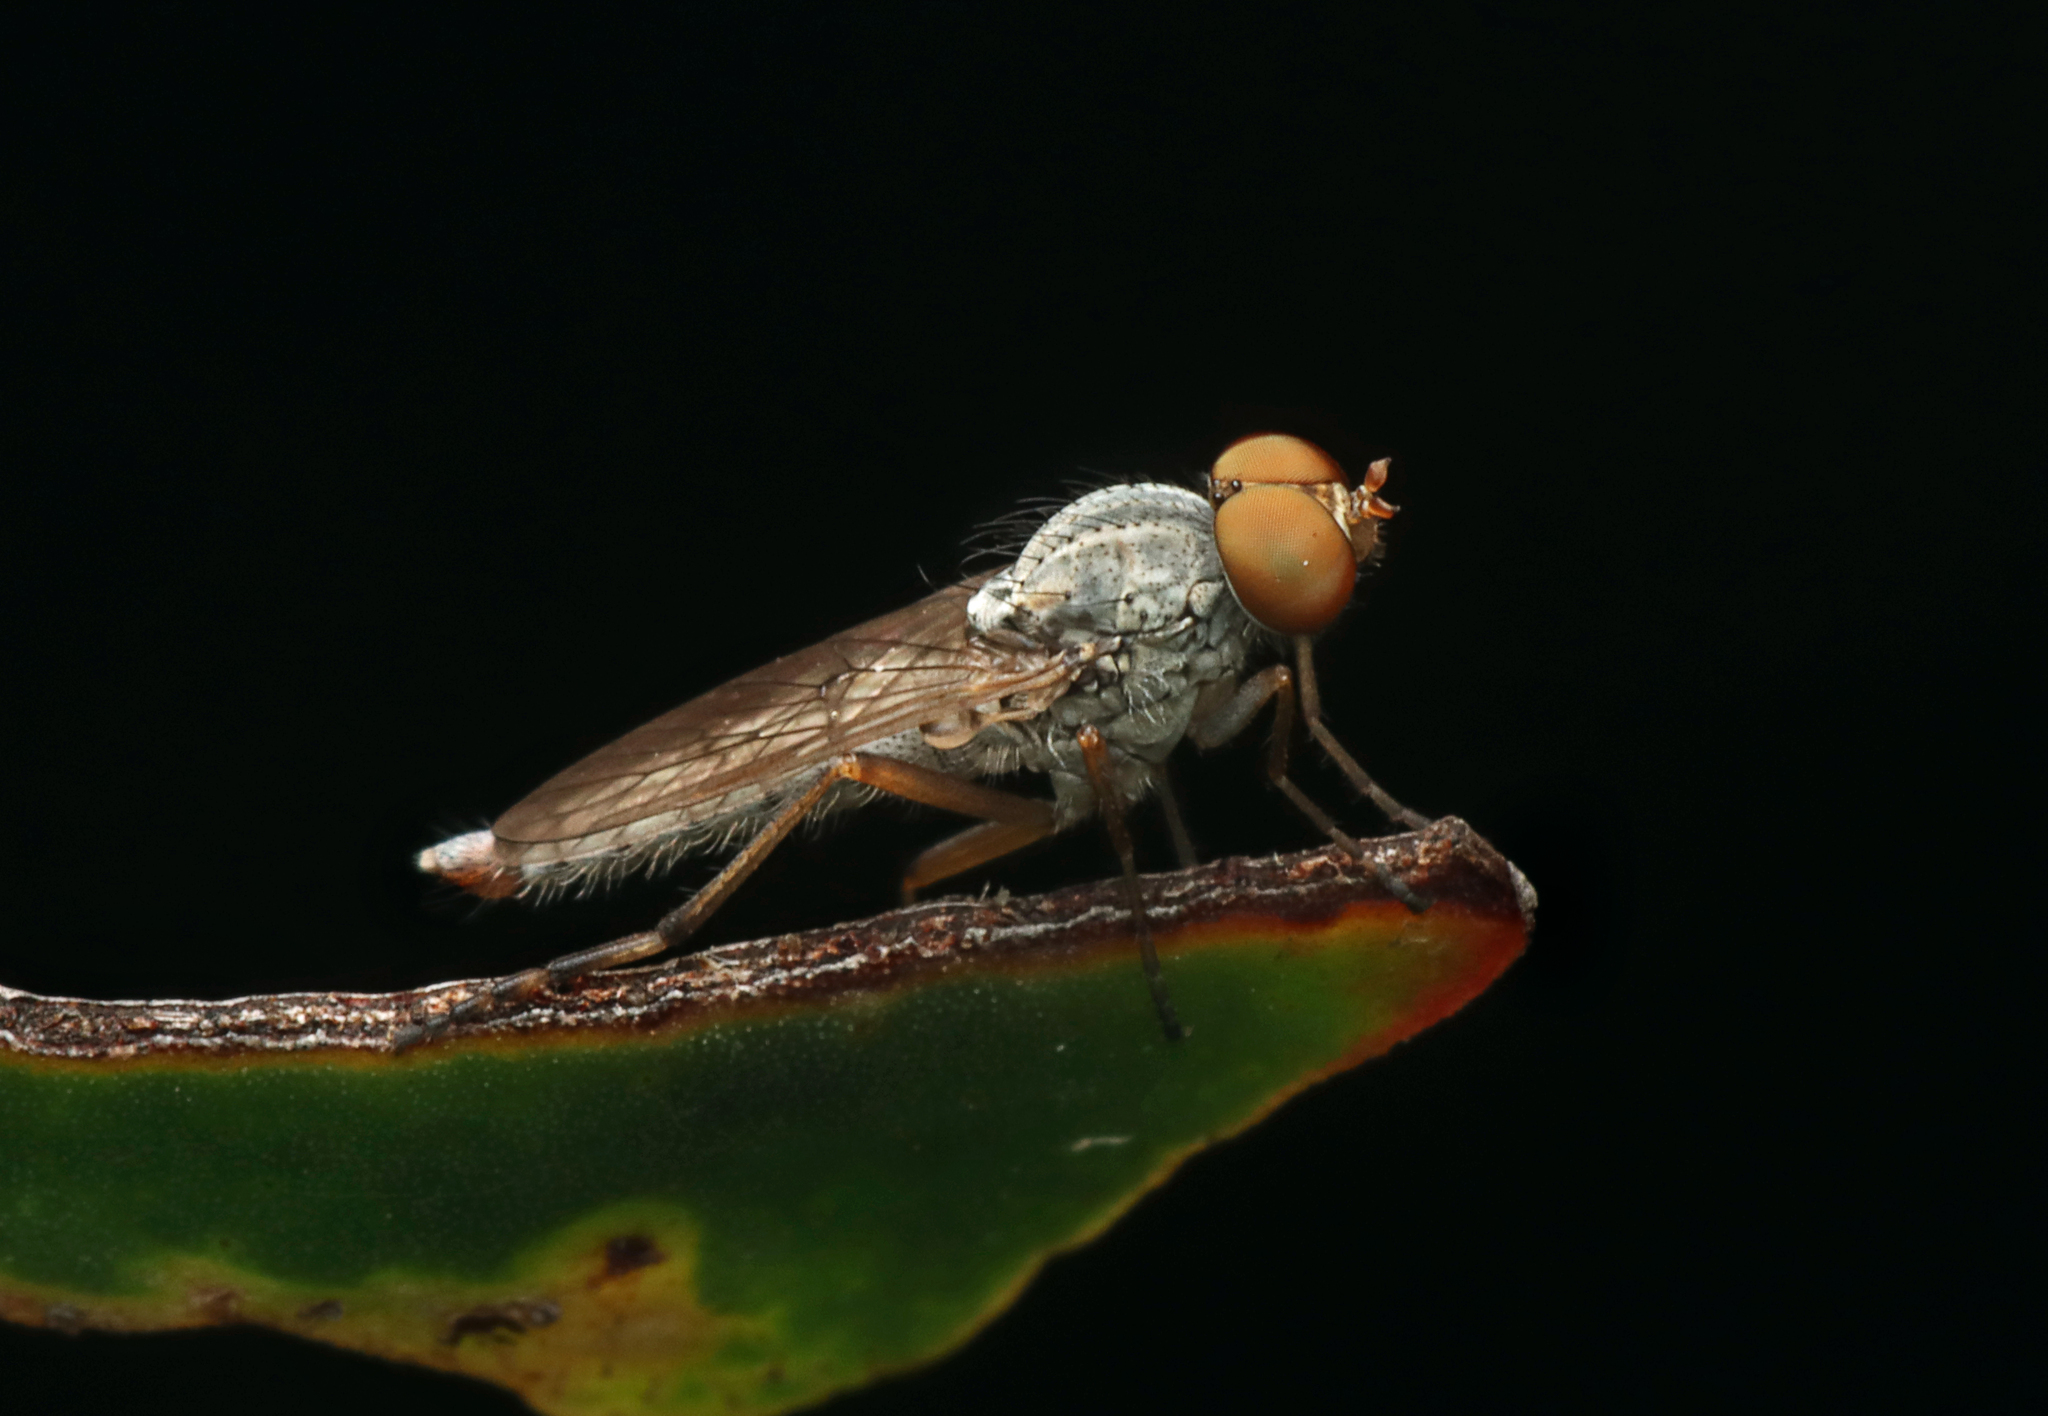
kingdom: Animalia
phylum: Arthropoda
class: Insecta
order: Diptera
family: Therevidae
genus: Neodialineura
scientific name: Neodialineura nitens
